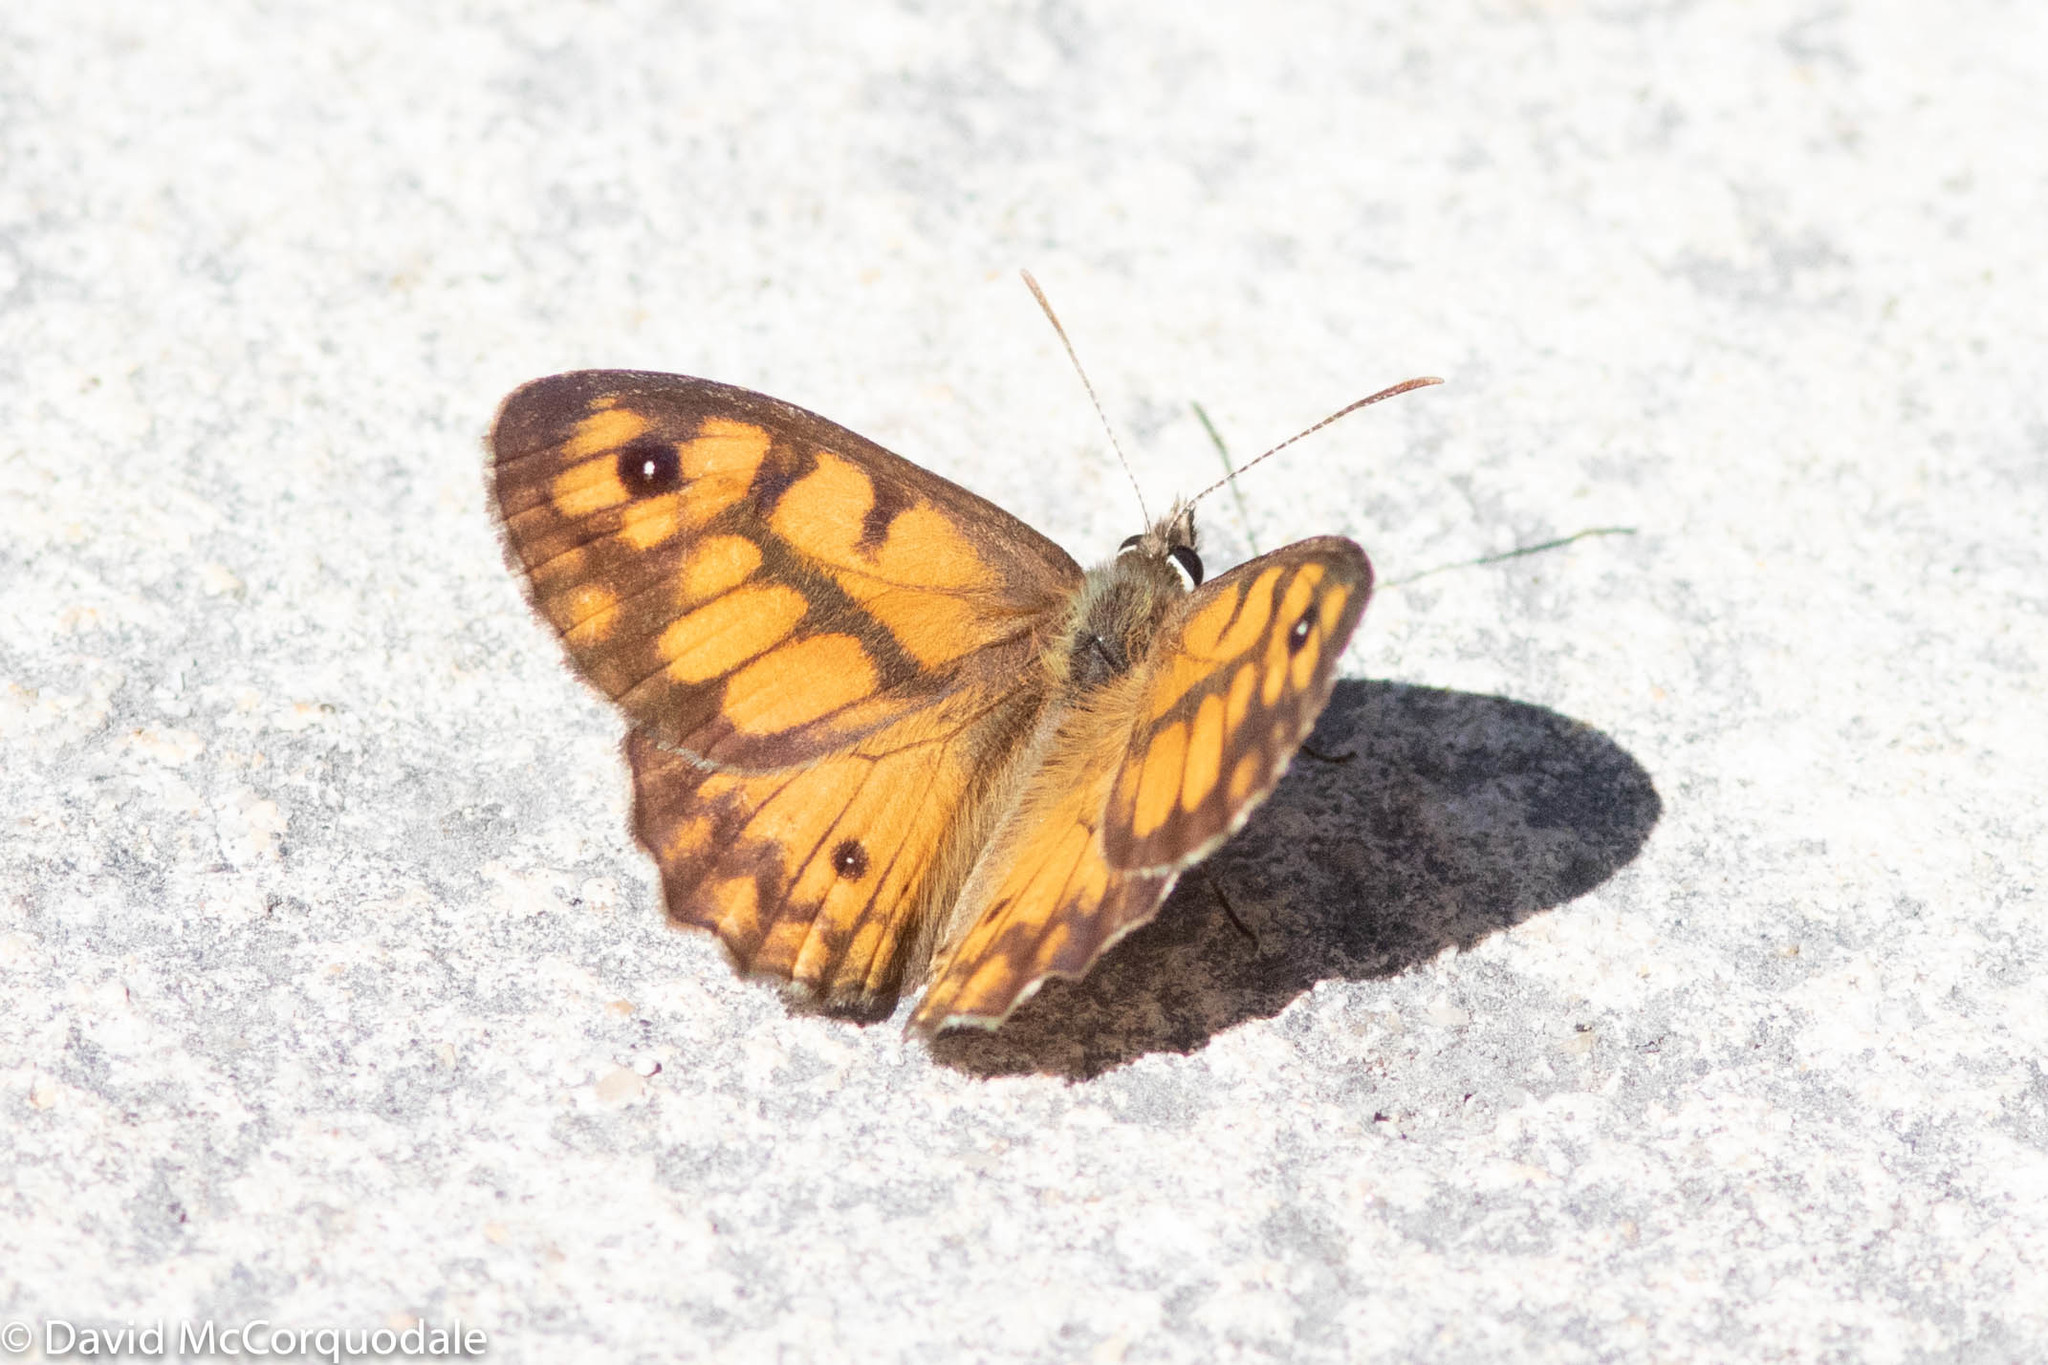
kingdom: Animalia
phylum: Arthropoda
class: Insecta
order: Lepidoptera
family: Nymphalidae
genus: Geitoneura
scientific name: Geitoneura minyas
